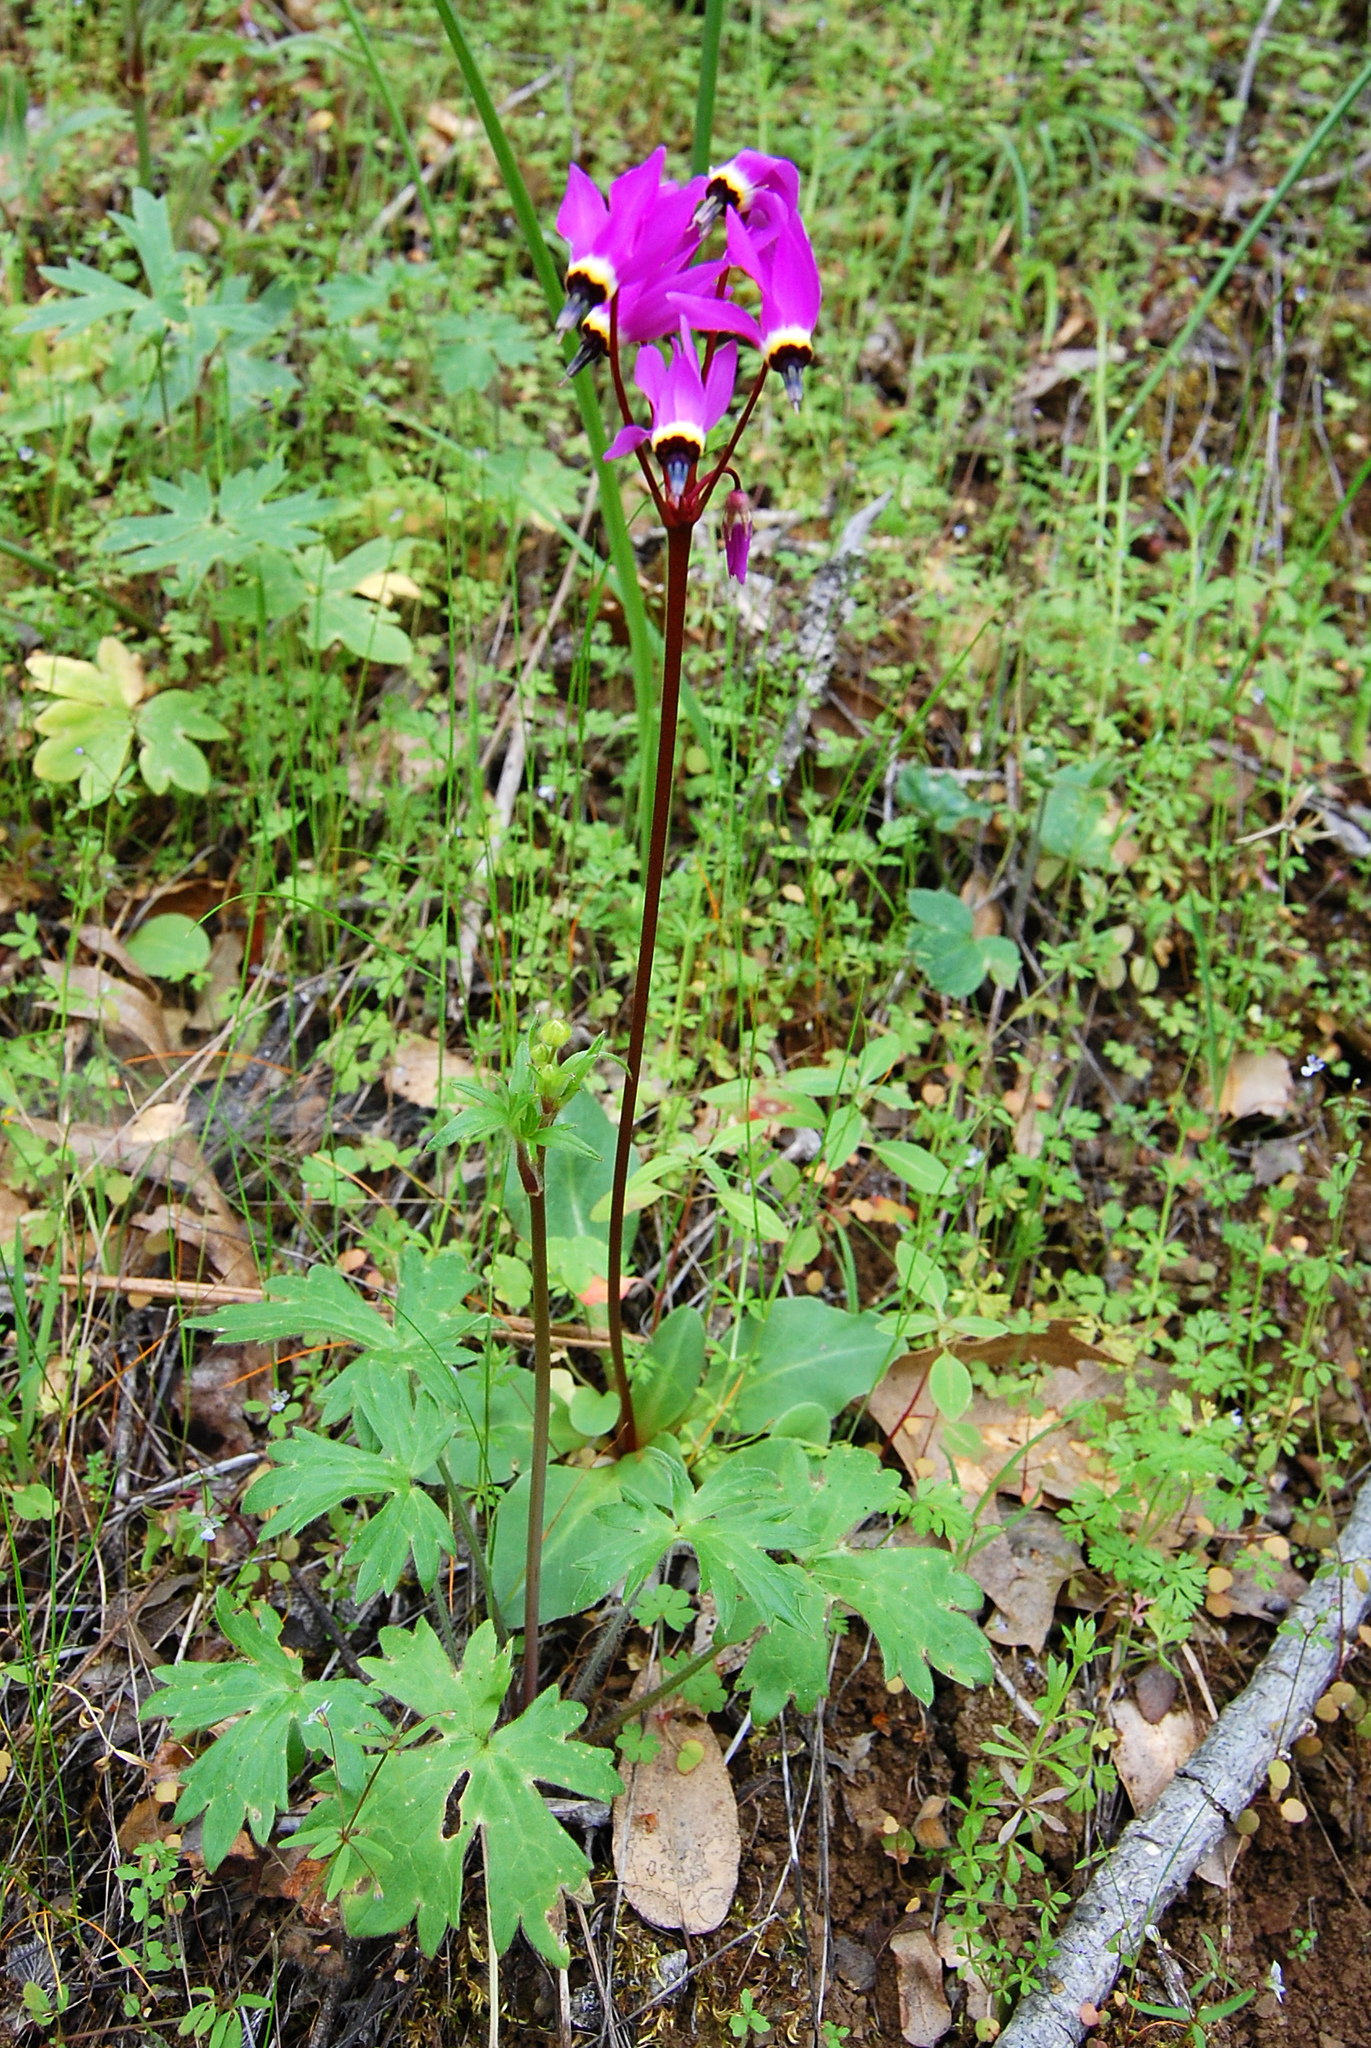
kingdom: Plantae
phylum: Tracheophyta
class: Magnoliopsida
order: Ericales
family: Primulaceae
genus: Dodecatheon
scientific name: Dodecatheon hendersonii
